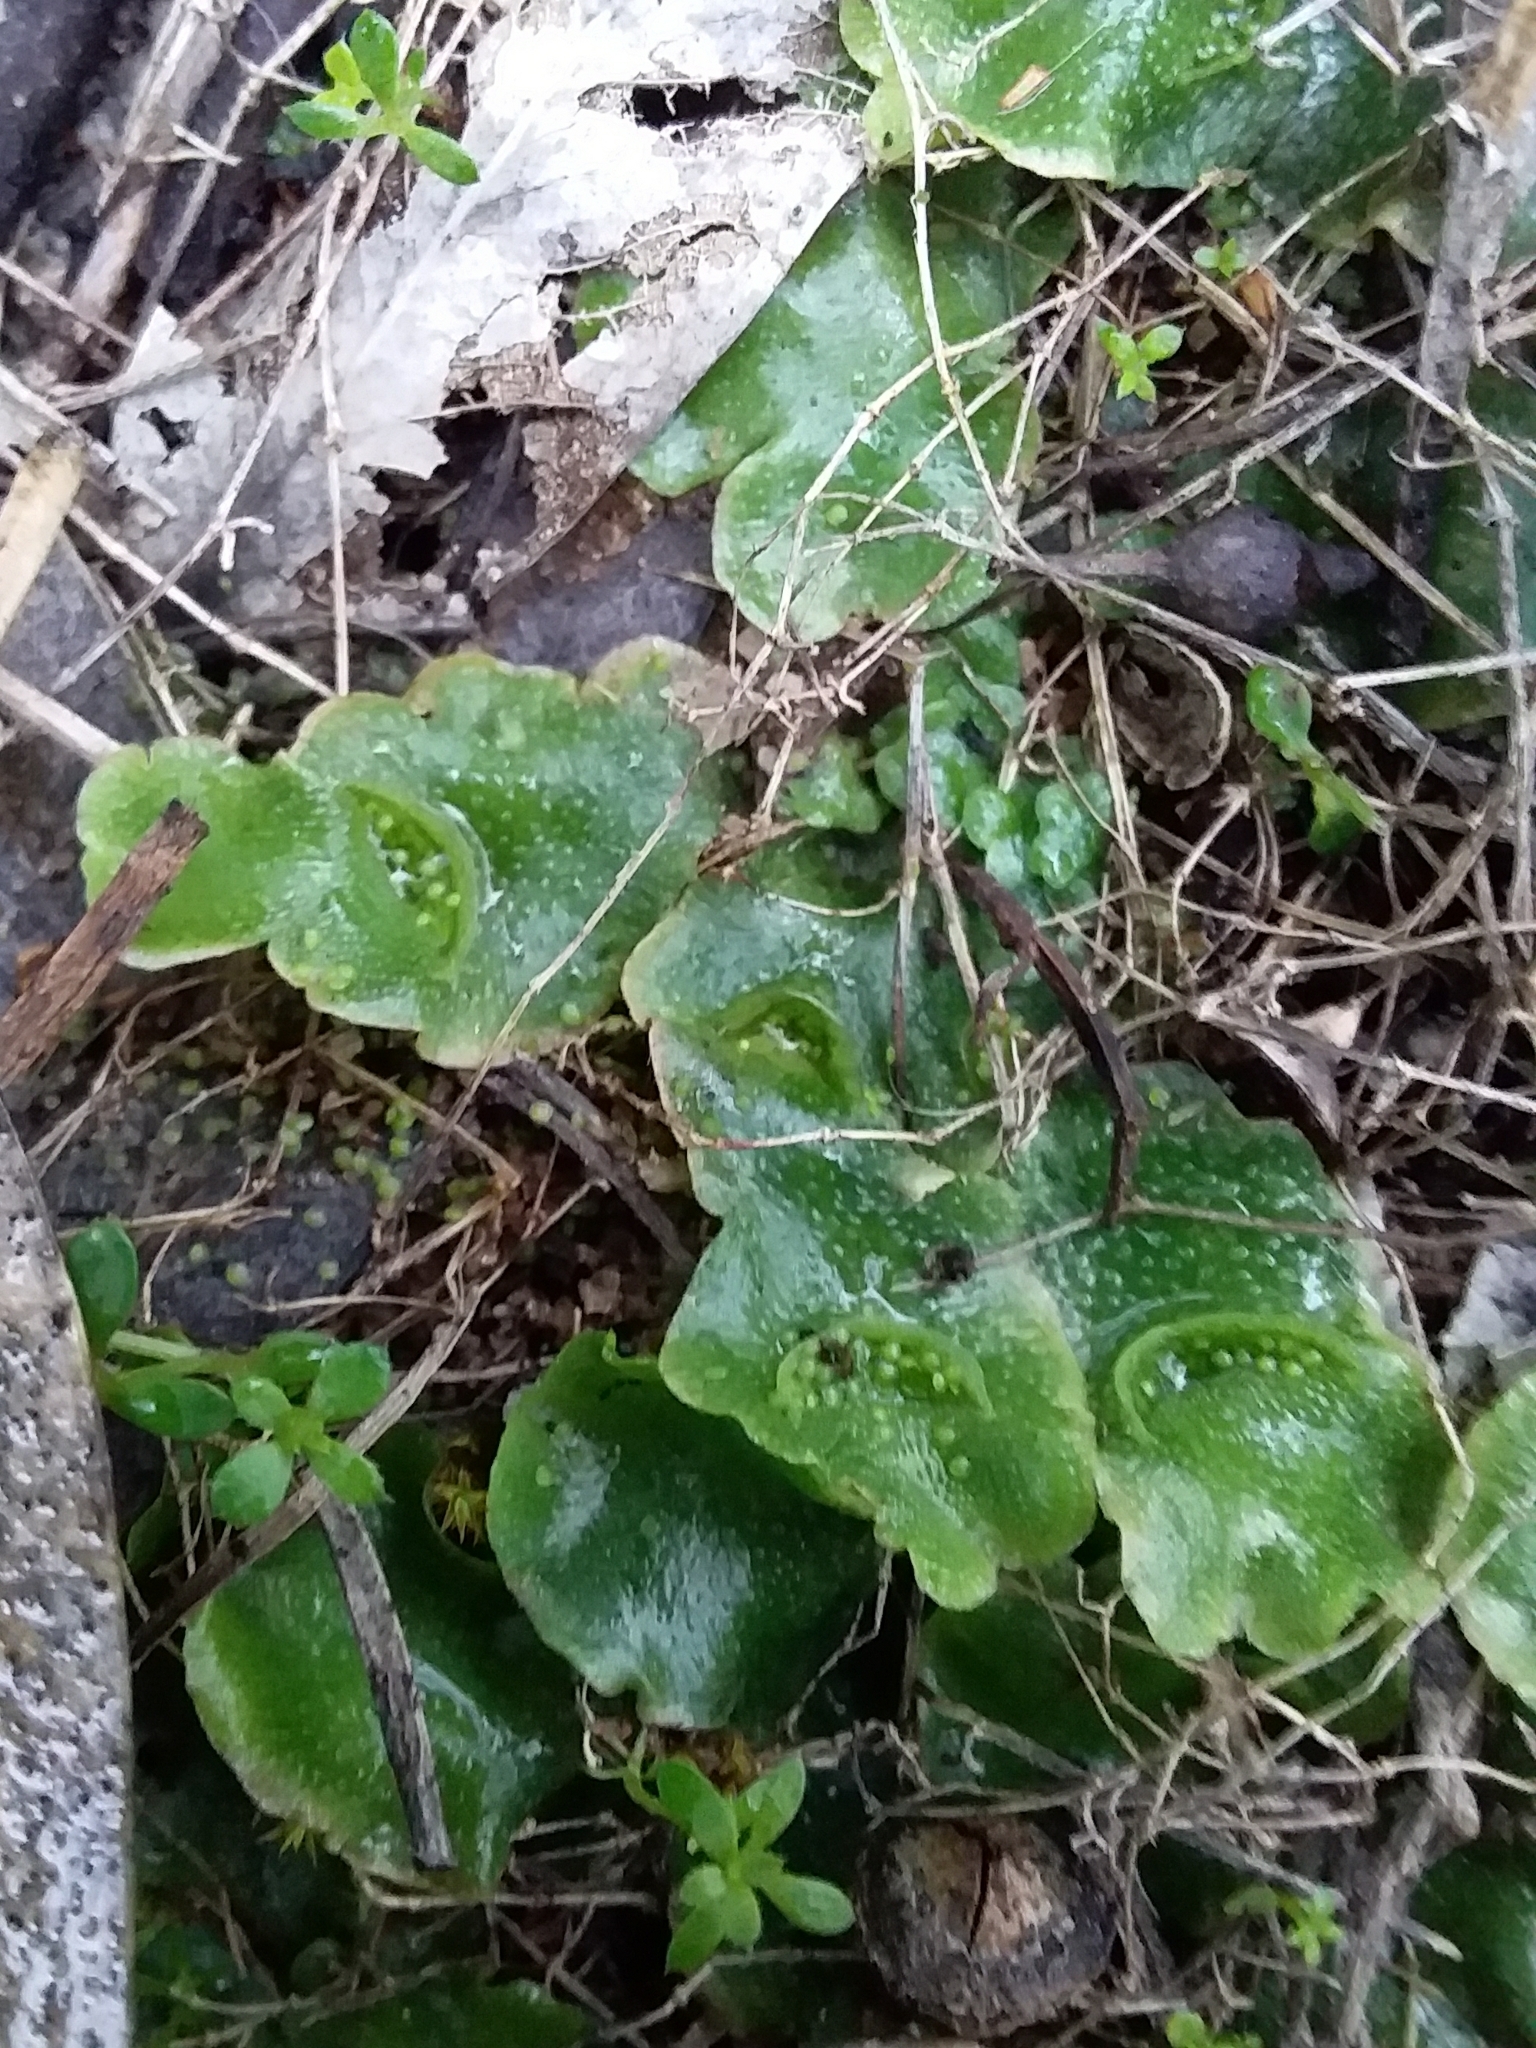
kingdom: Plantae
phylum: Marchantiophyta
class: Marchantiopsida
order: Lunulariales
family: Lunulariaceae
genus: Lunularia
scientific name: Lunularia cruciata
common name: Crescent-cup liverwort
